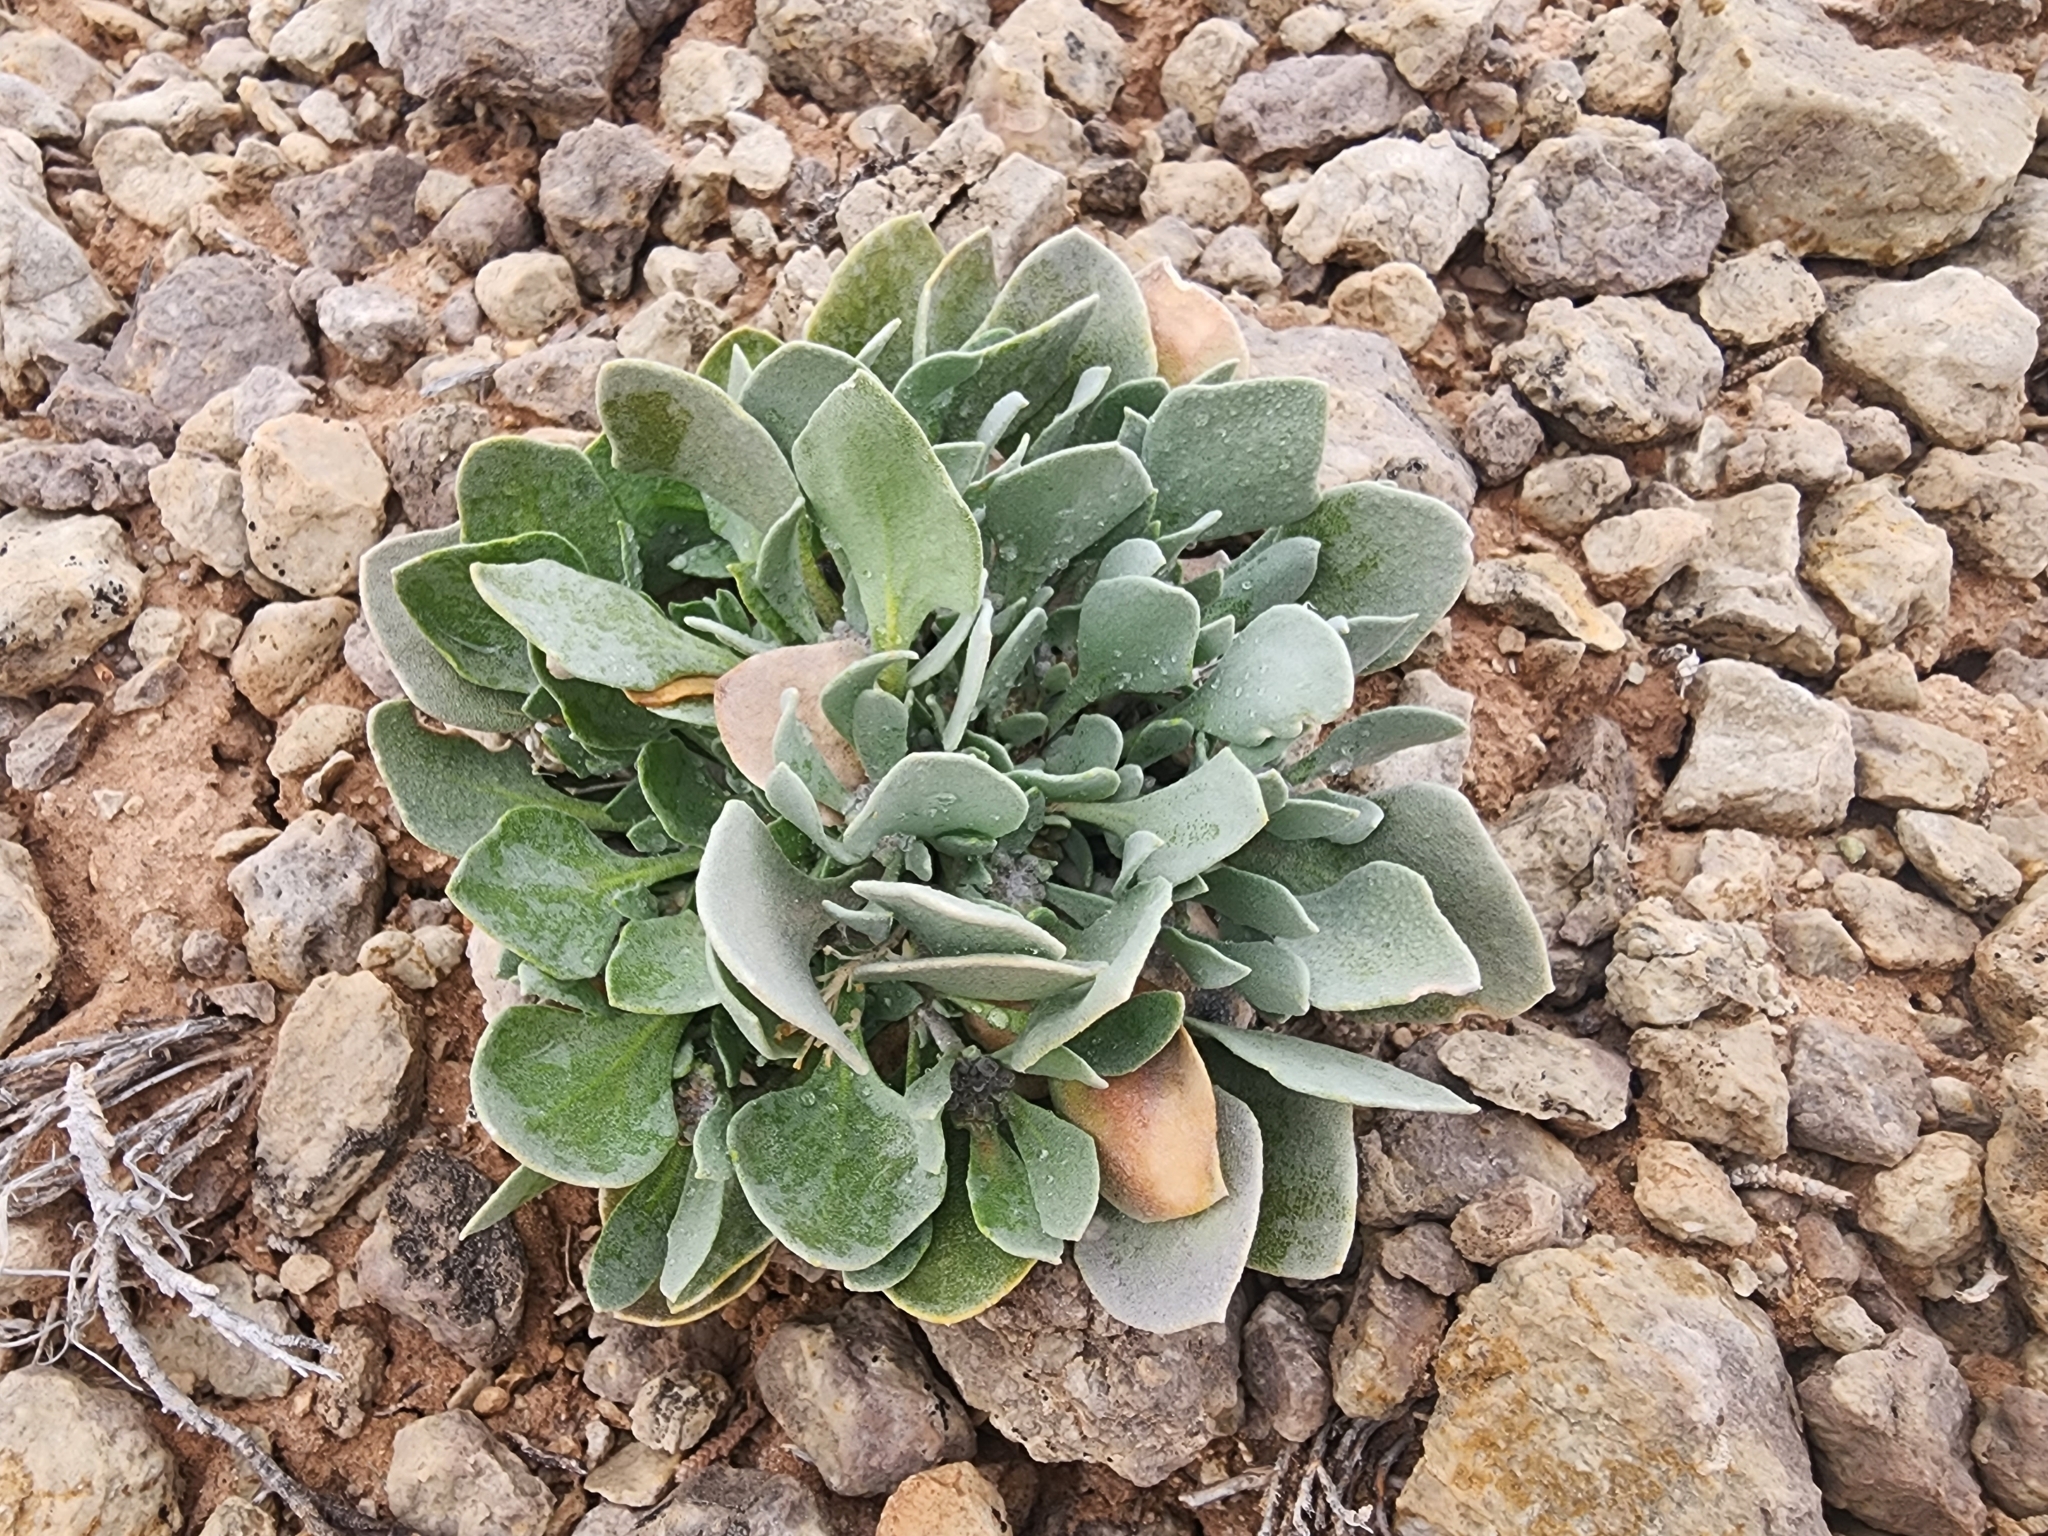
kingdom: Plantae
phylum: Tracheophyta
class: Magnoliopsida
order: Brassicales
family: Brassicaceae
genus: Physaria
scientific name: Physaria chambersii
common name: Chamber's twinpod
